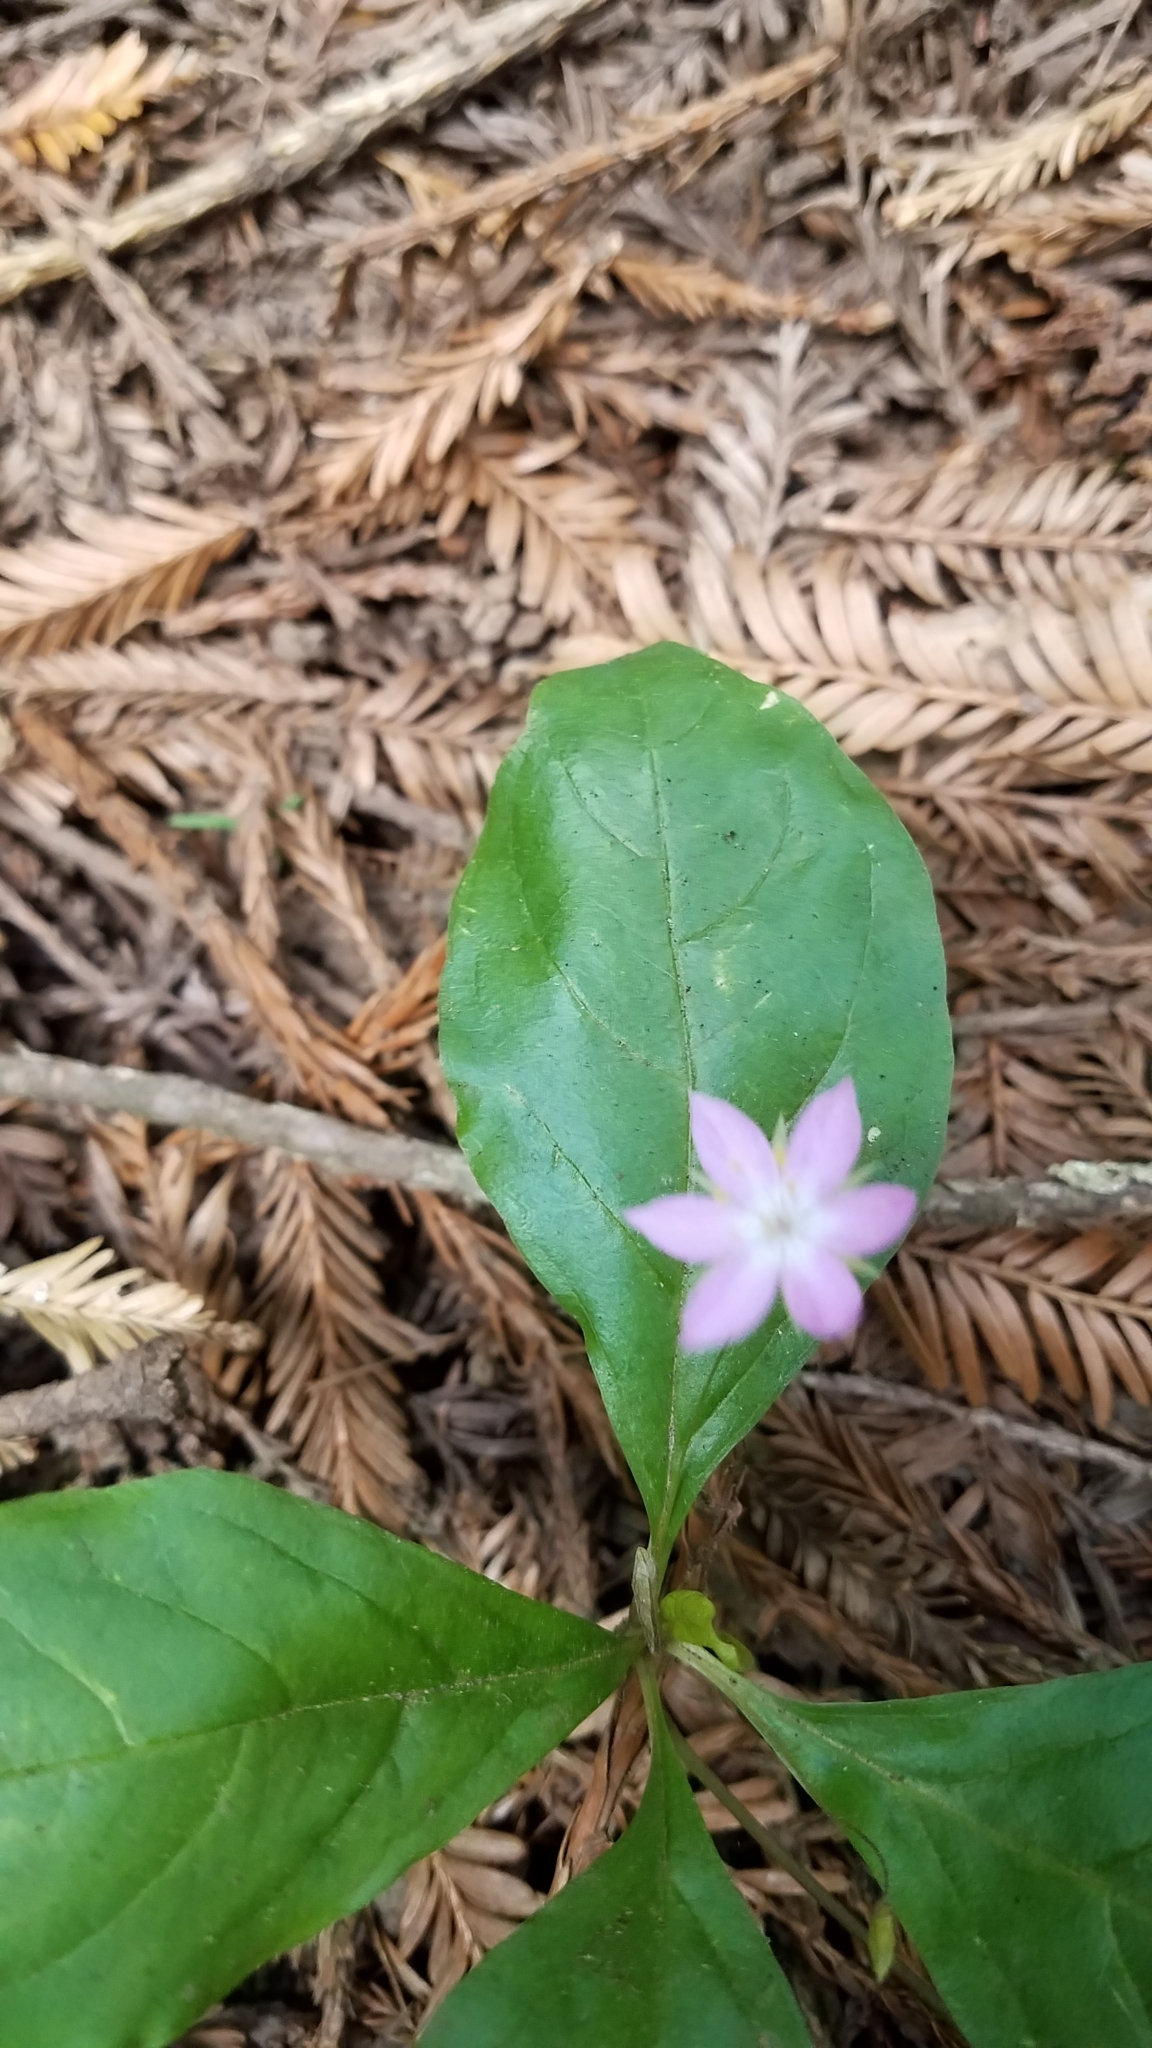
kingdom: Plantae
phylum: Tracheophyta
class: Magnoliopsida
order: Ericales
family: Primulaceae
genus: Lysimachia
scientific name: Lysimachia latifolia
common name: Pacific starflower
